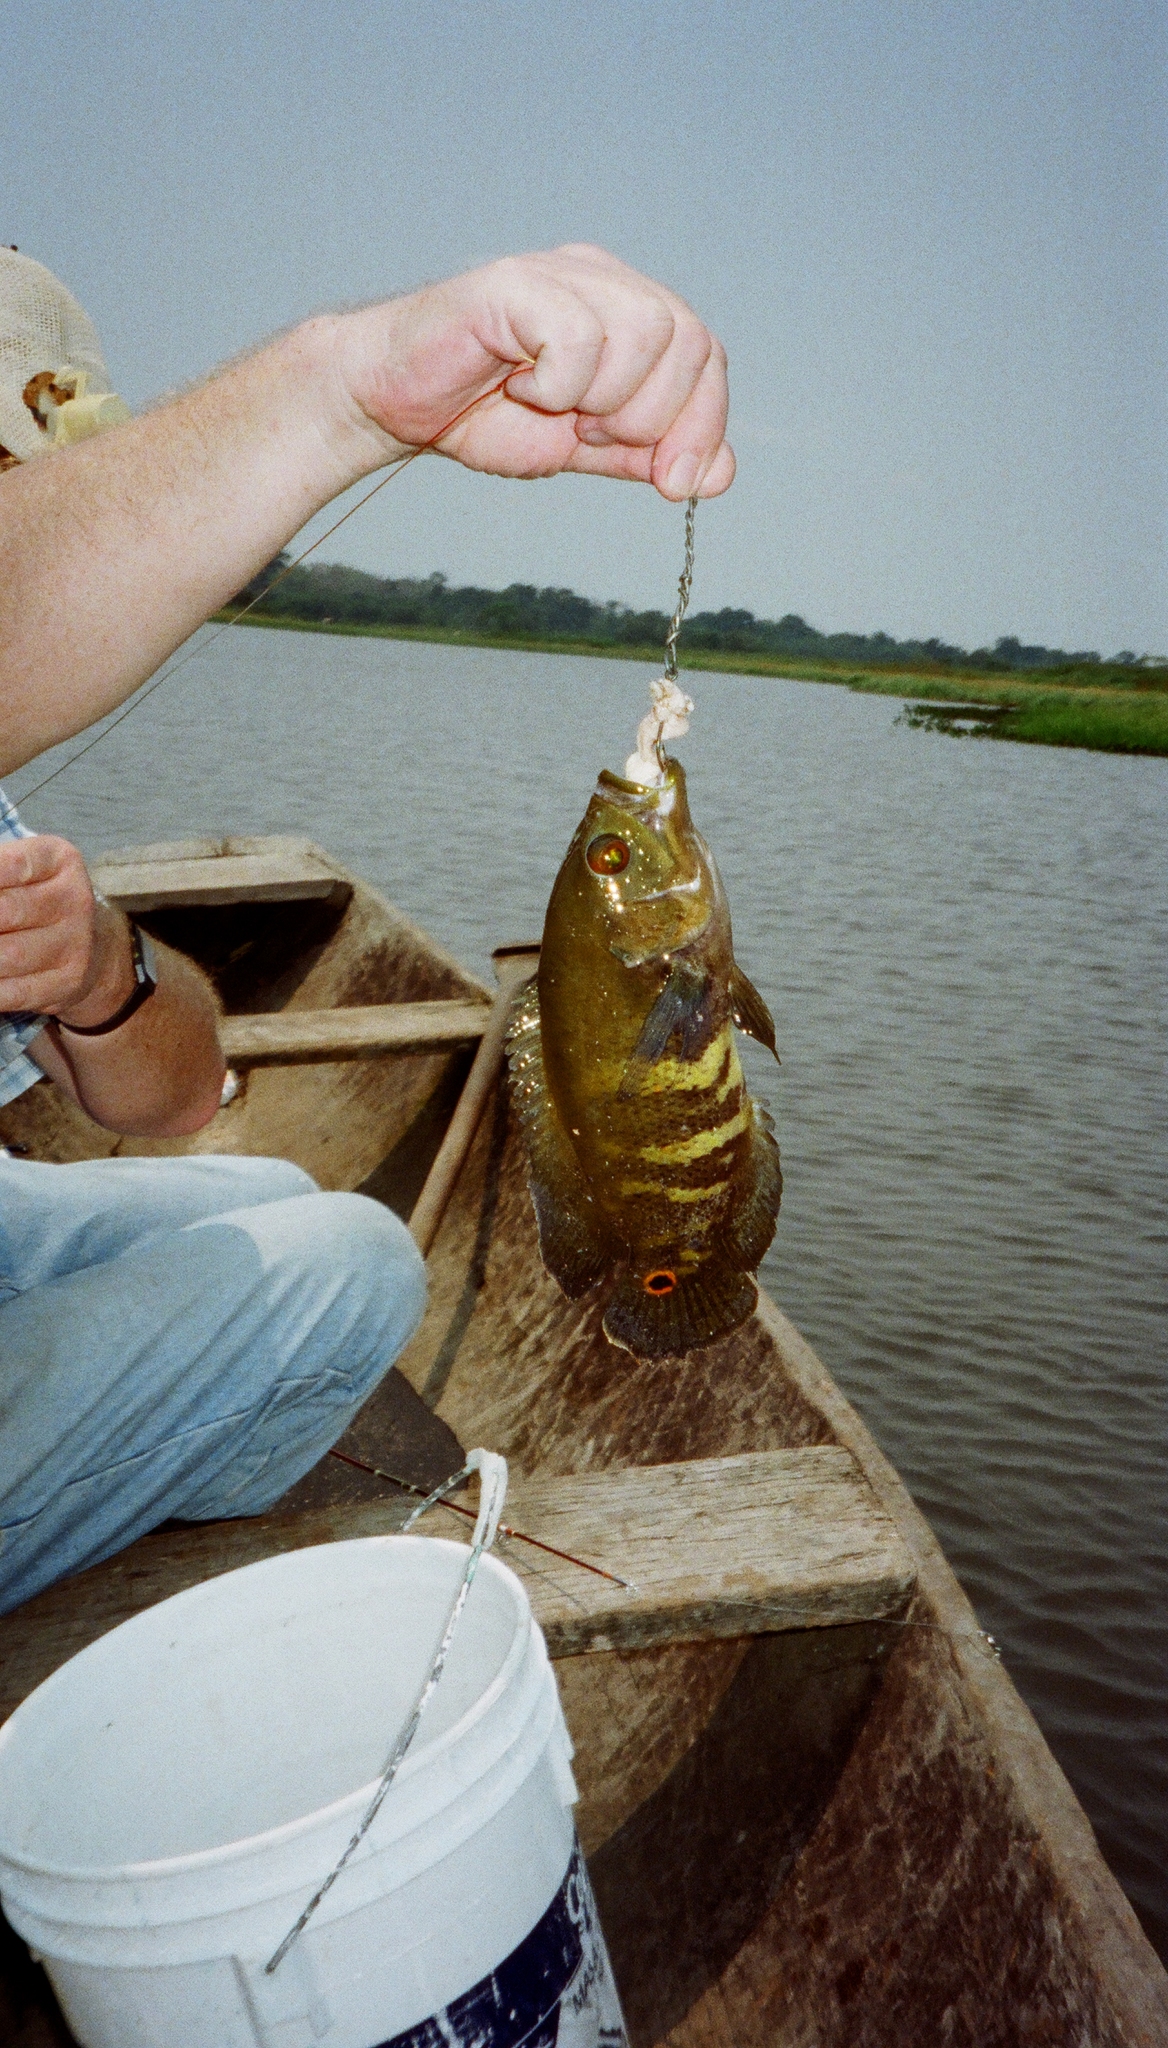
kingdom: Animalia
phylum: Chordata
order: Perciformes
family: Cichlidae
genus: Astronotus
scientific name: Astronotus ocellatus
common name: Oscar
